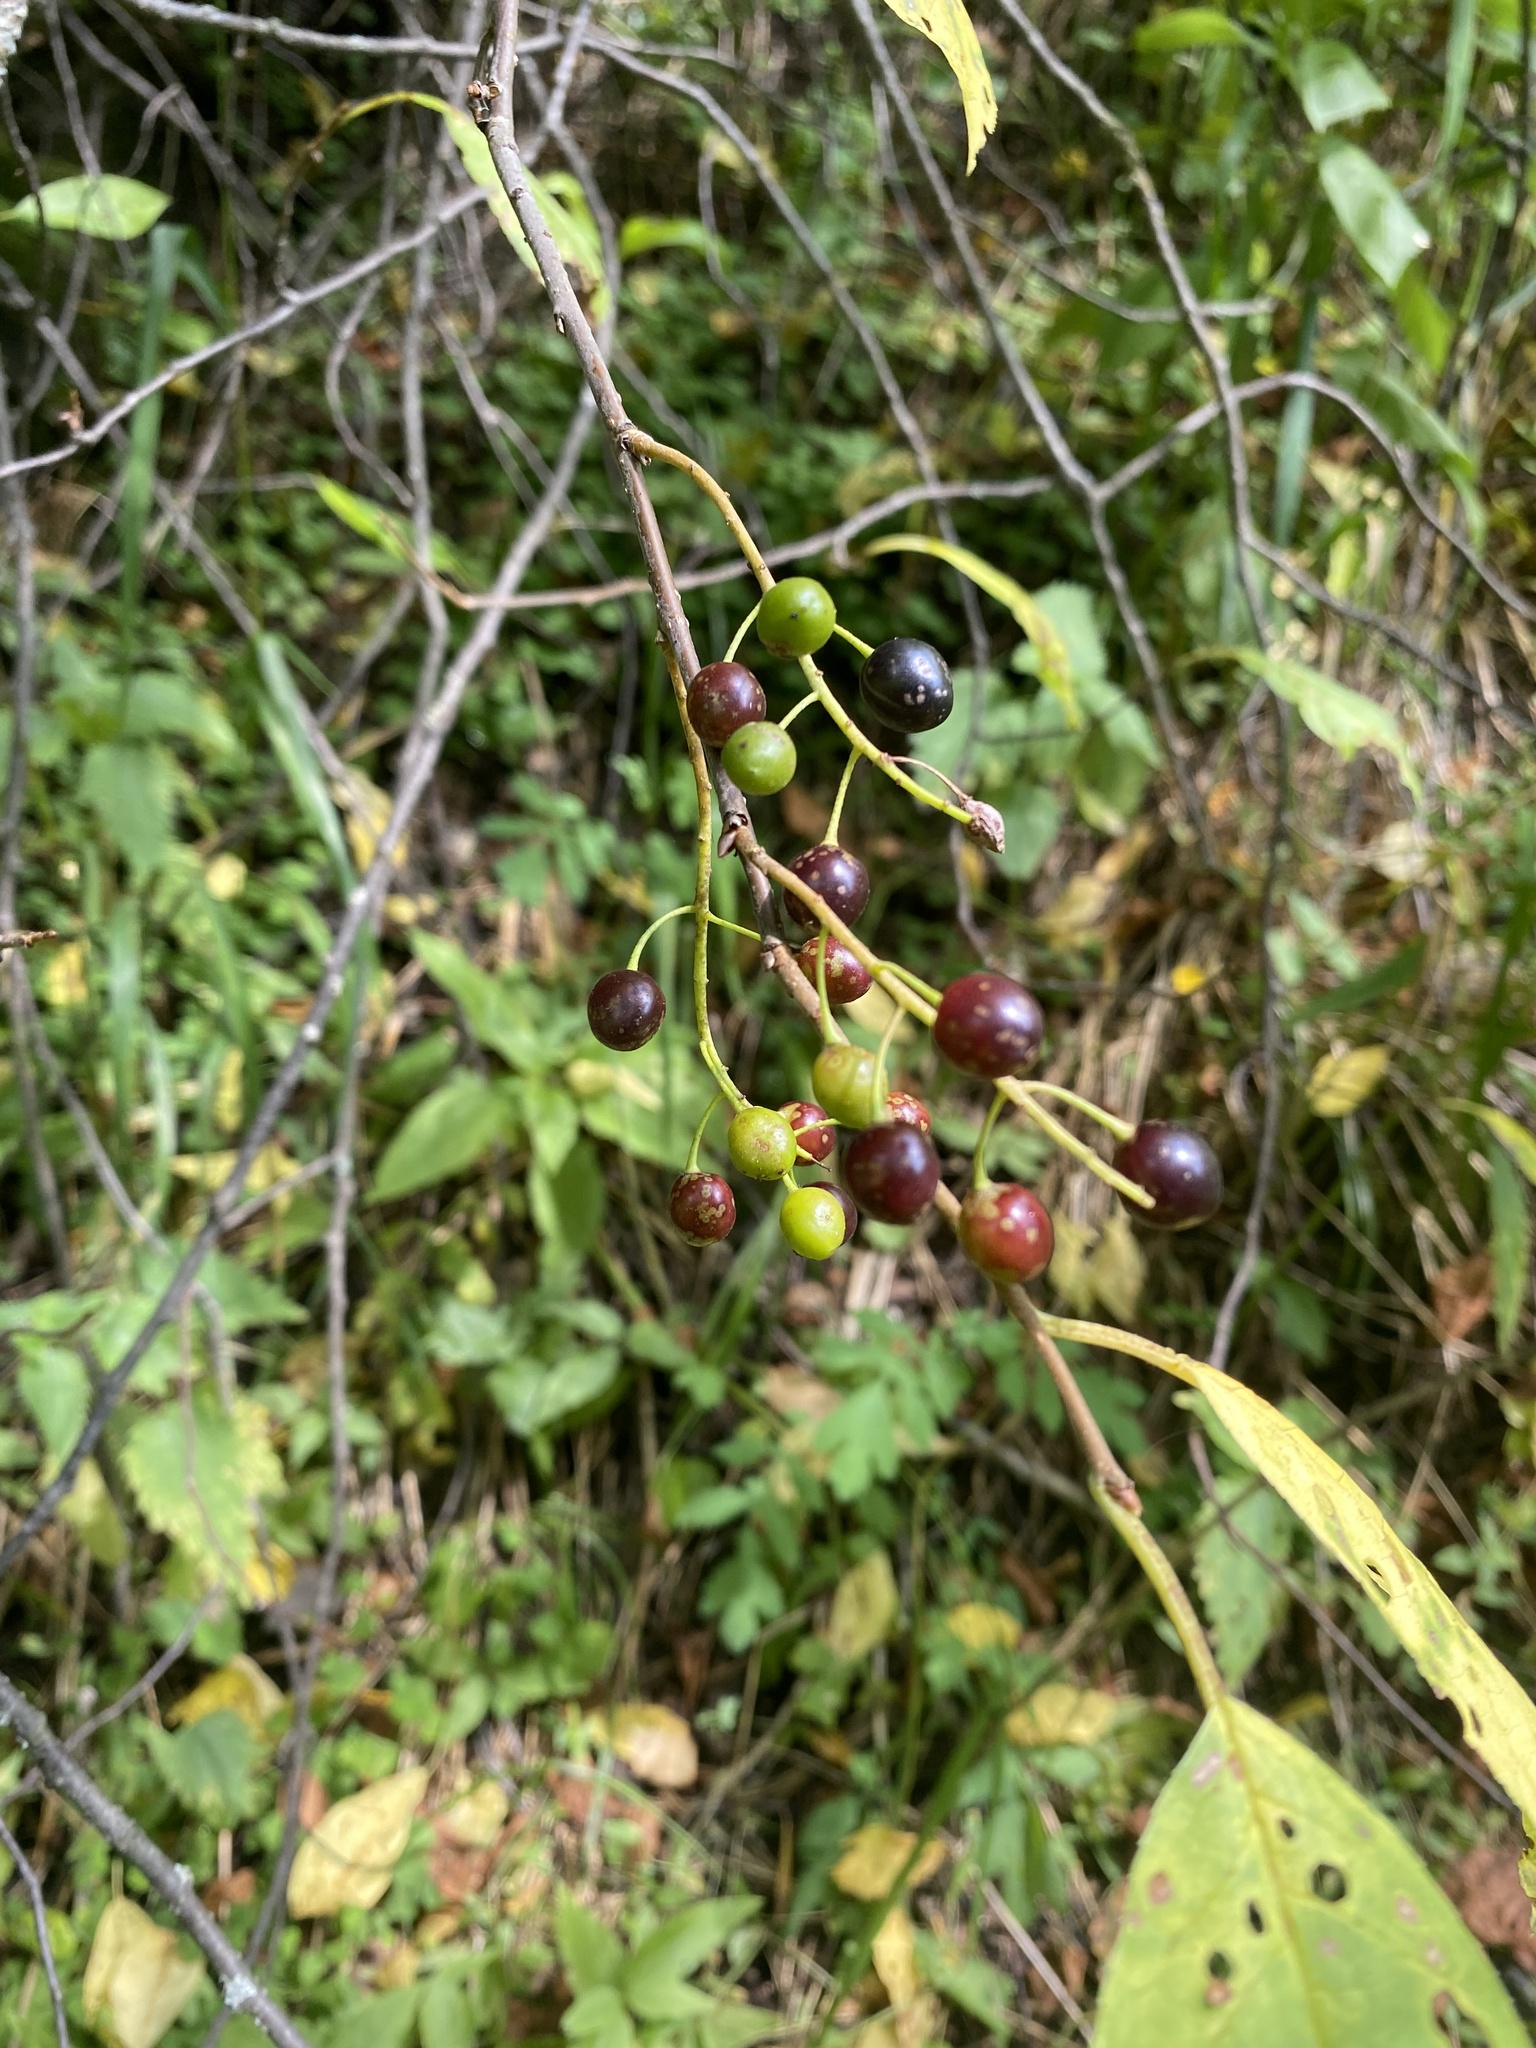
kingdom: Plantae
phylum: Tracheophyta
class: Magnoliopsida
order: Rosales
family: Rosaceae
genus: Prunus
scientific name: Prunus padus
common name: Bird cherry
